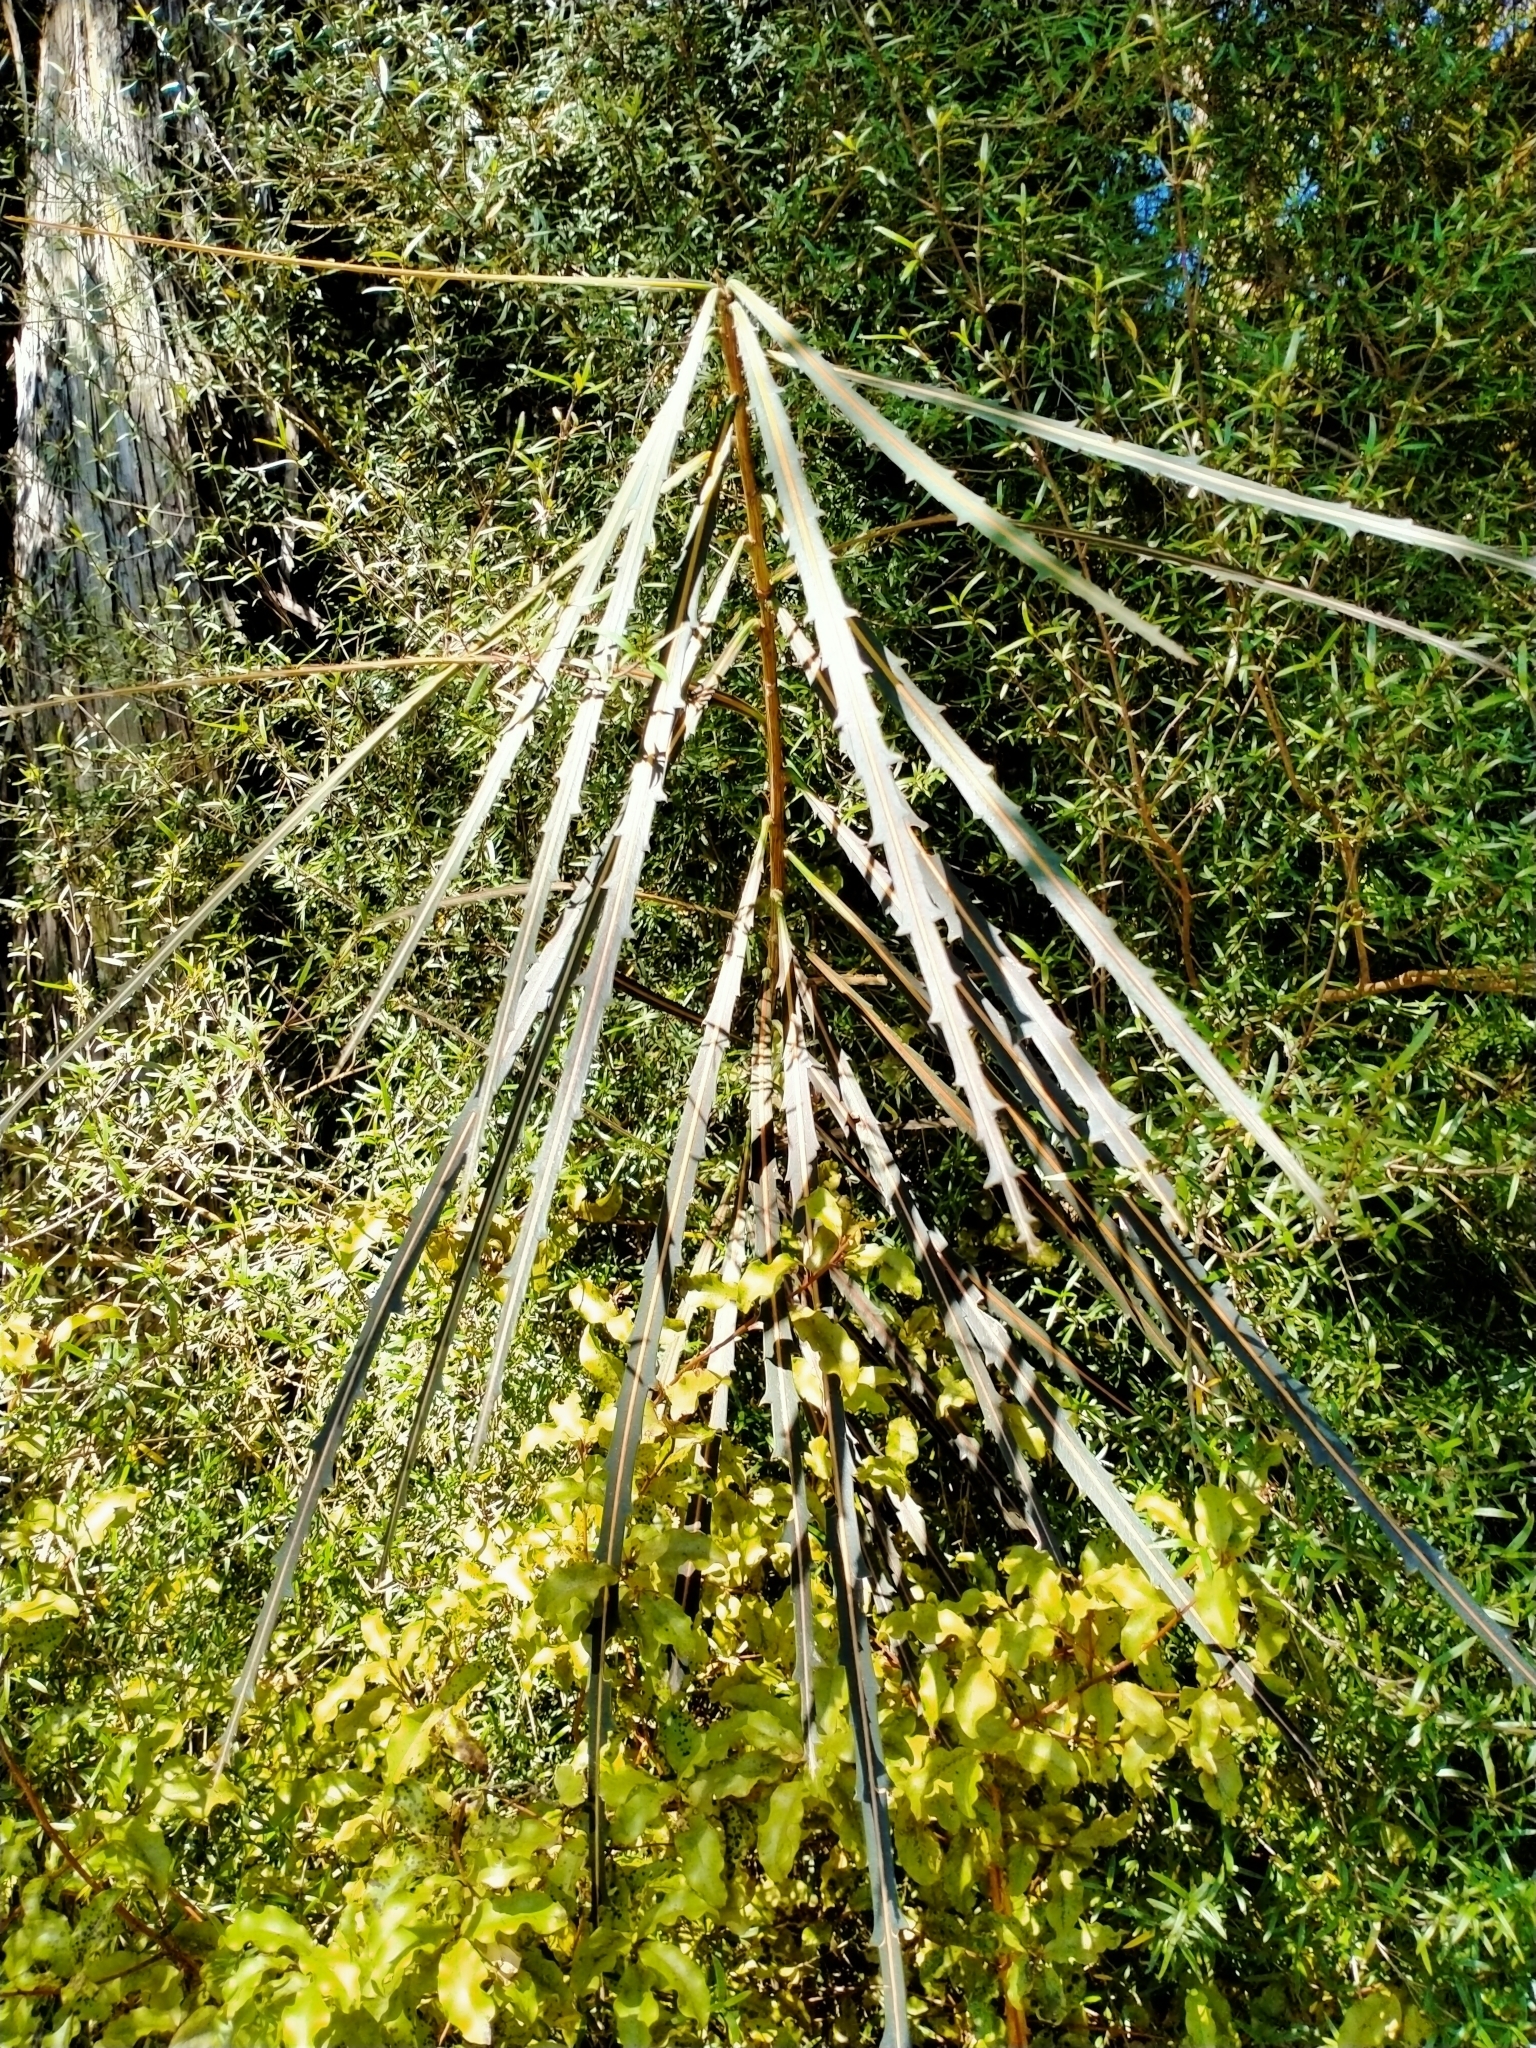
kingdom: Plantae
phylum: Tracheophyta
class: Magnoliopsida
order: Apiales
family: Araliaceae
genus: Pseudopanax
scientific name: Pseudopanax crassifolius
